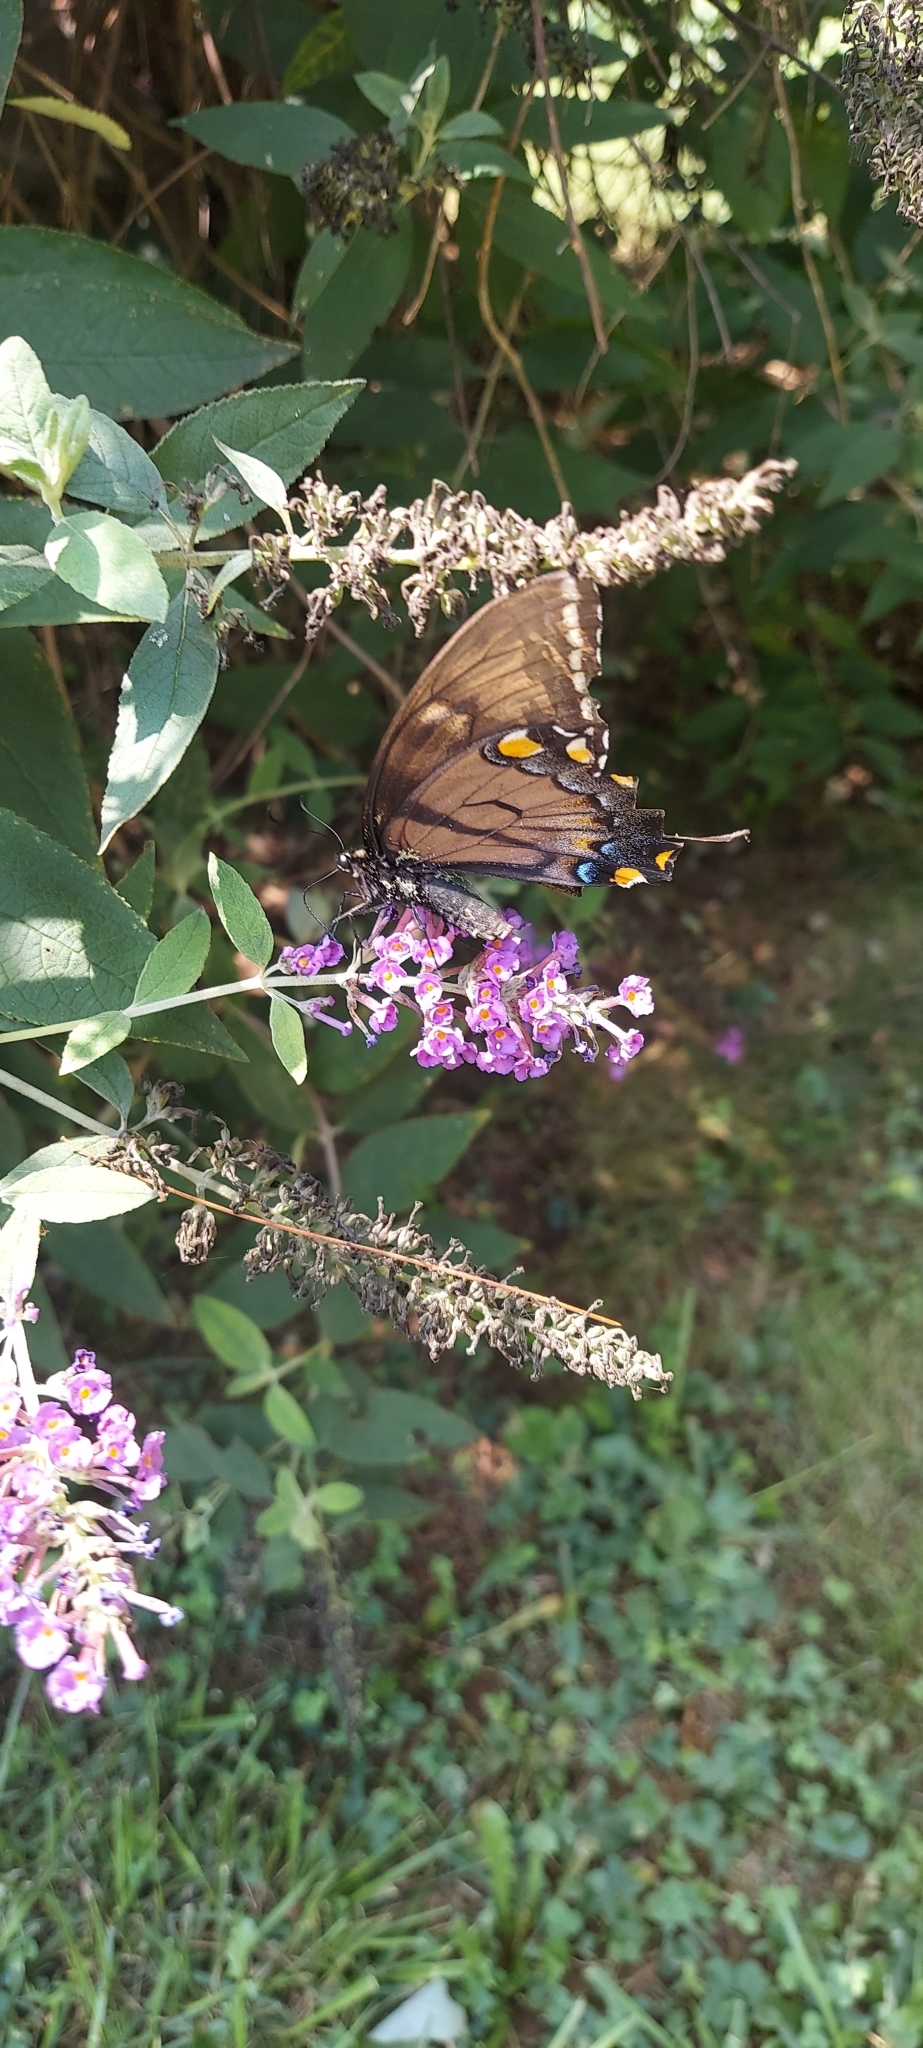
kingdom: Animalia
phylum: Arthropoda
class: Insecta
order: Lepidoptera
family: Papilionidae
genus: Papilio
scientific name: Papilio glaucus
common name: Tiger swallowtail
